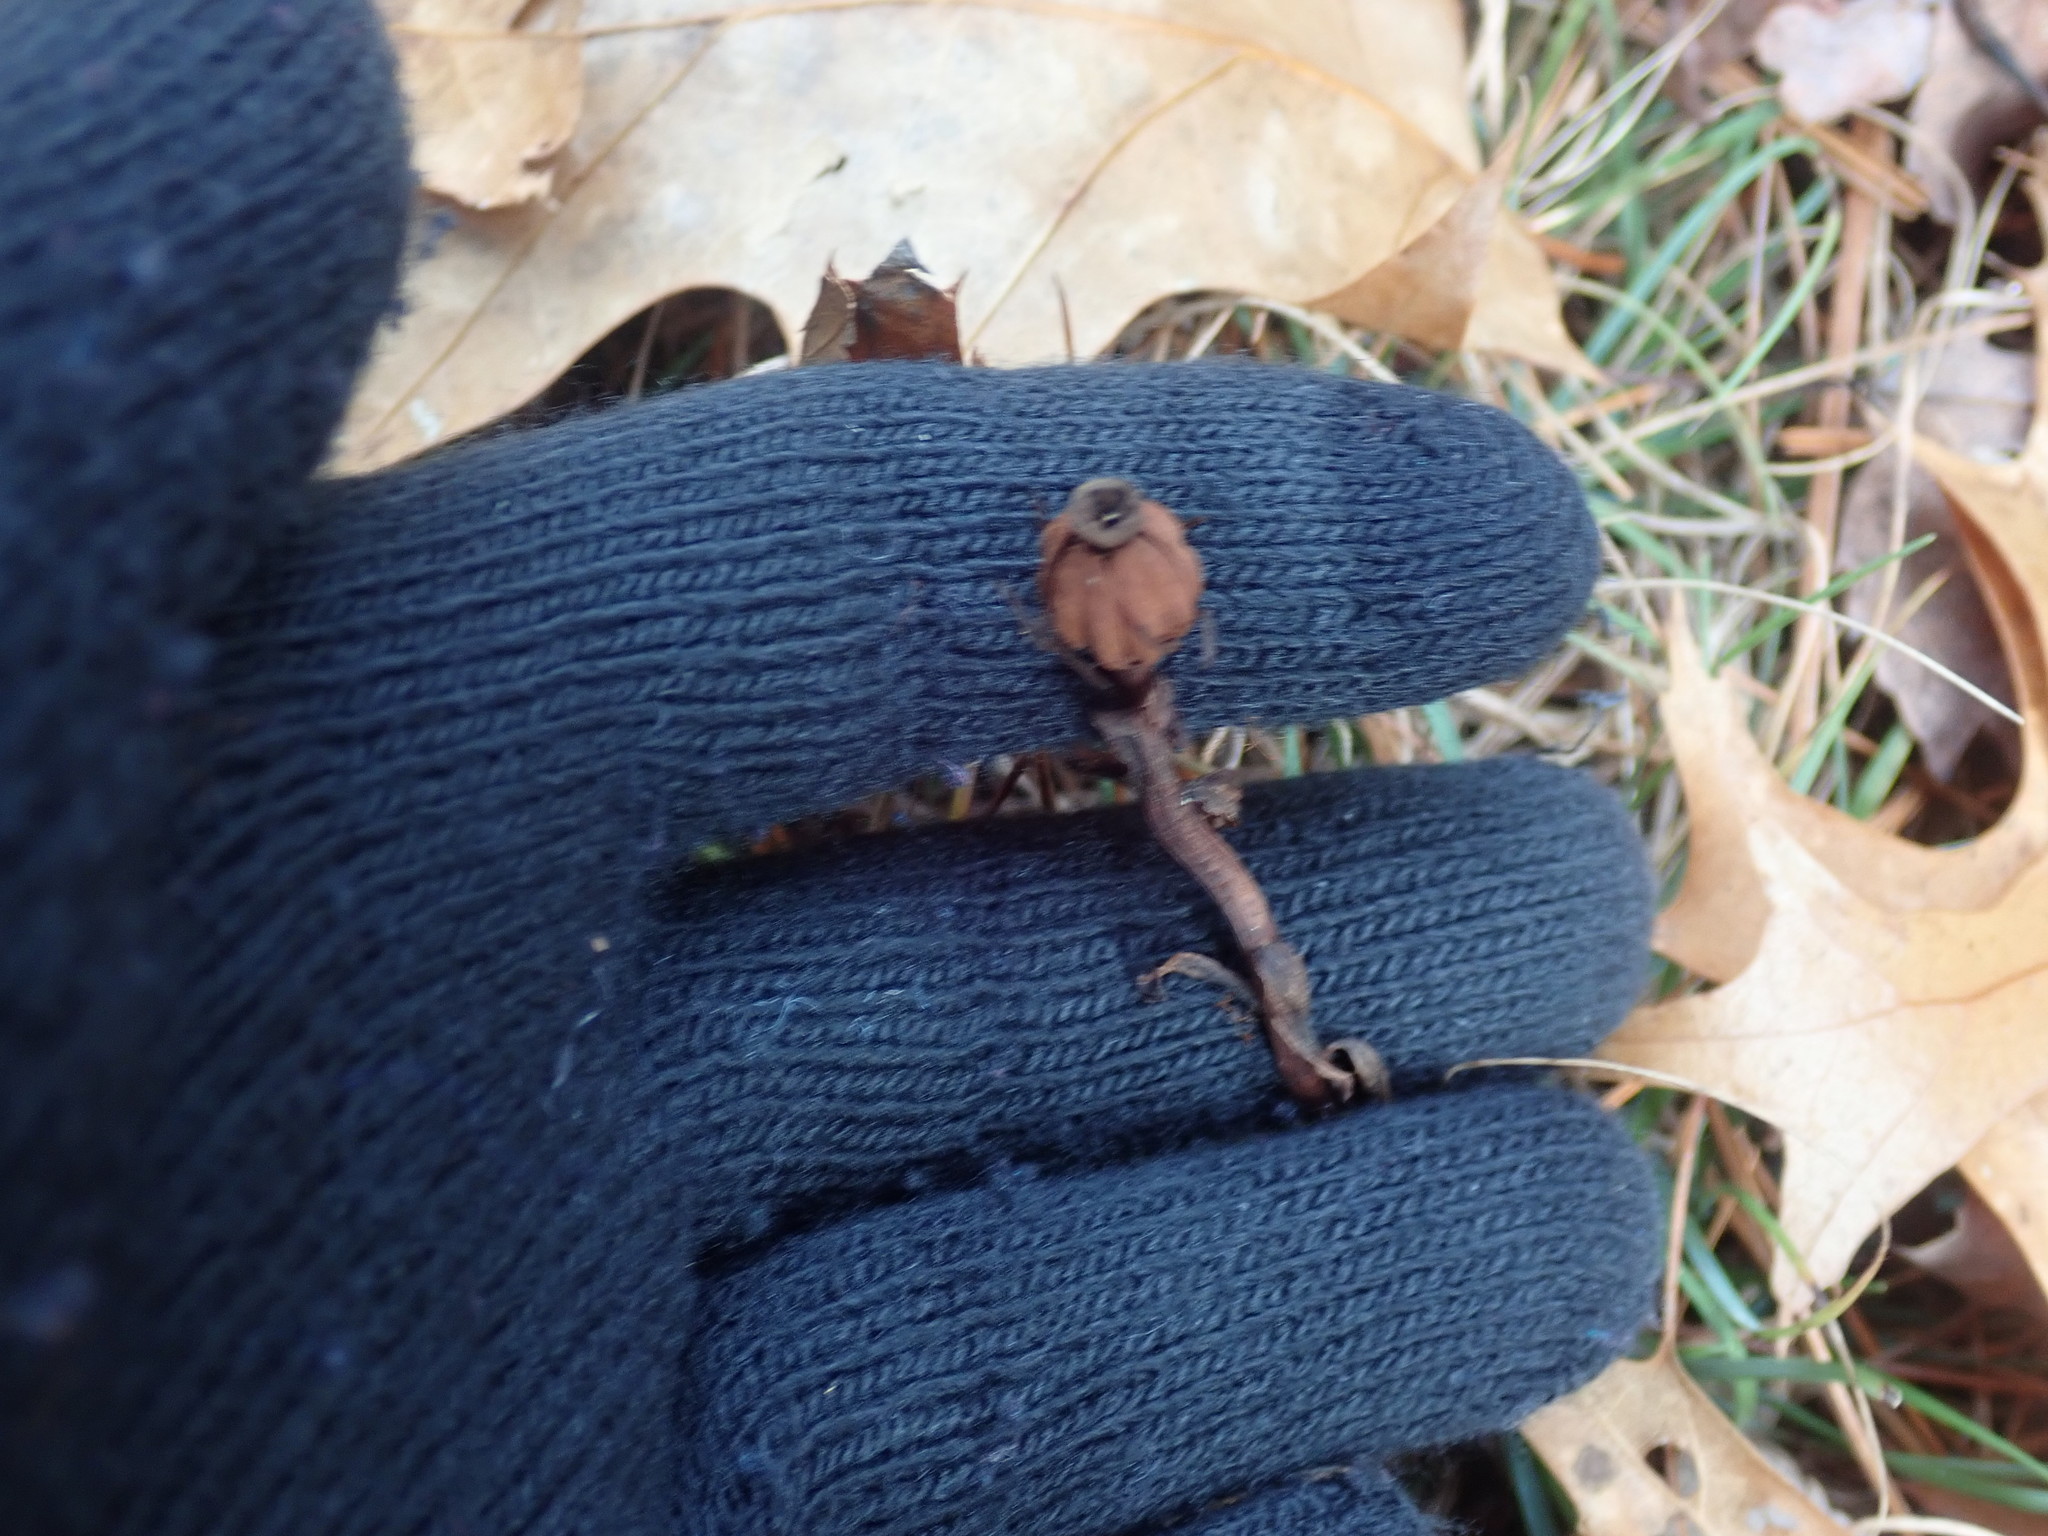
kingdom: Plantae
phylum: Tracheophyta
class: Magnoliopsida
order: Ericales
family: Ericaceae
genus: Monotropa
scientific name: Monotropa uniflora
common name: Convulsion root
